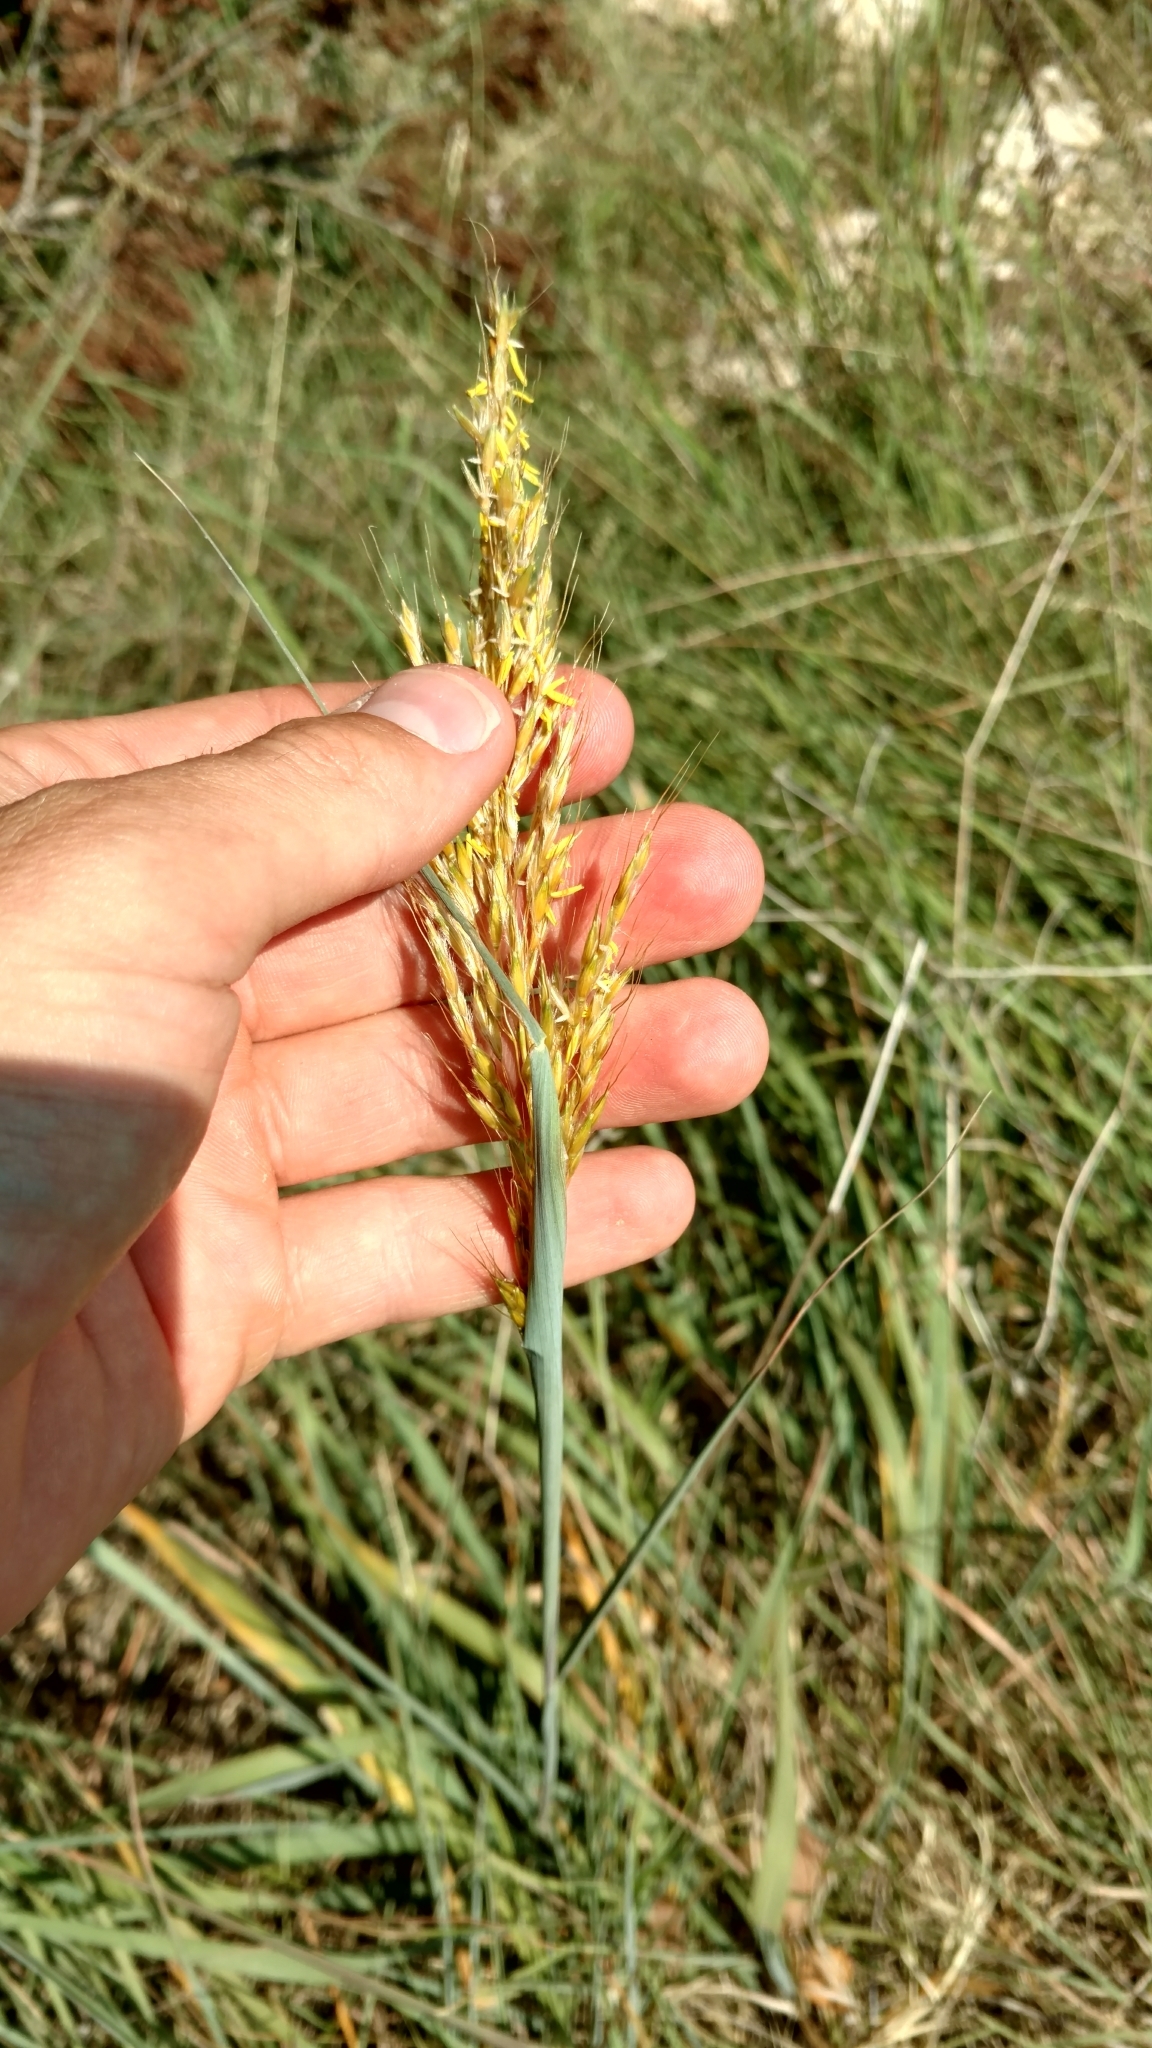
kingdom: Plantae
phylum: Tracheophyta
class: Liliopsida
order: Poales
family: Poaceae
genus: Sorghastrum
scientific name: Sorghastrum nutans
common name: Indian grass
